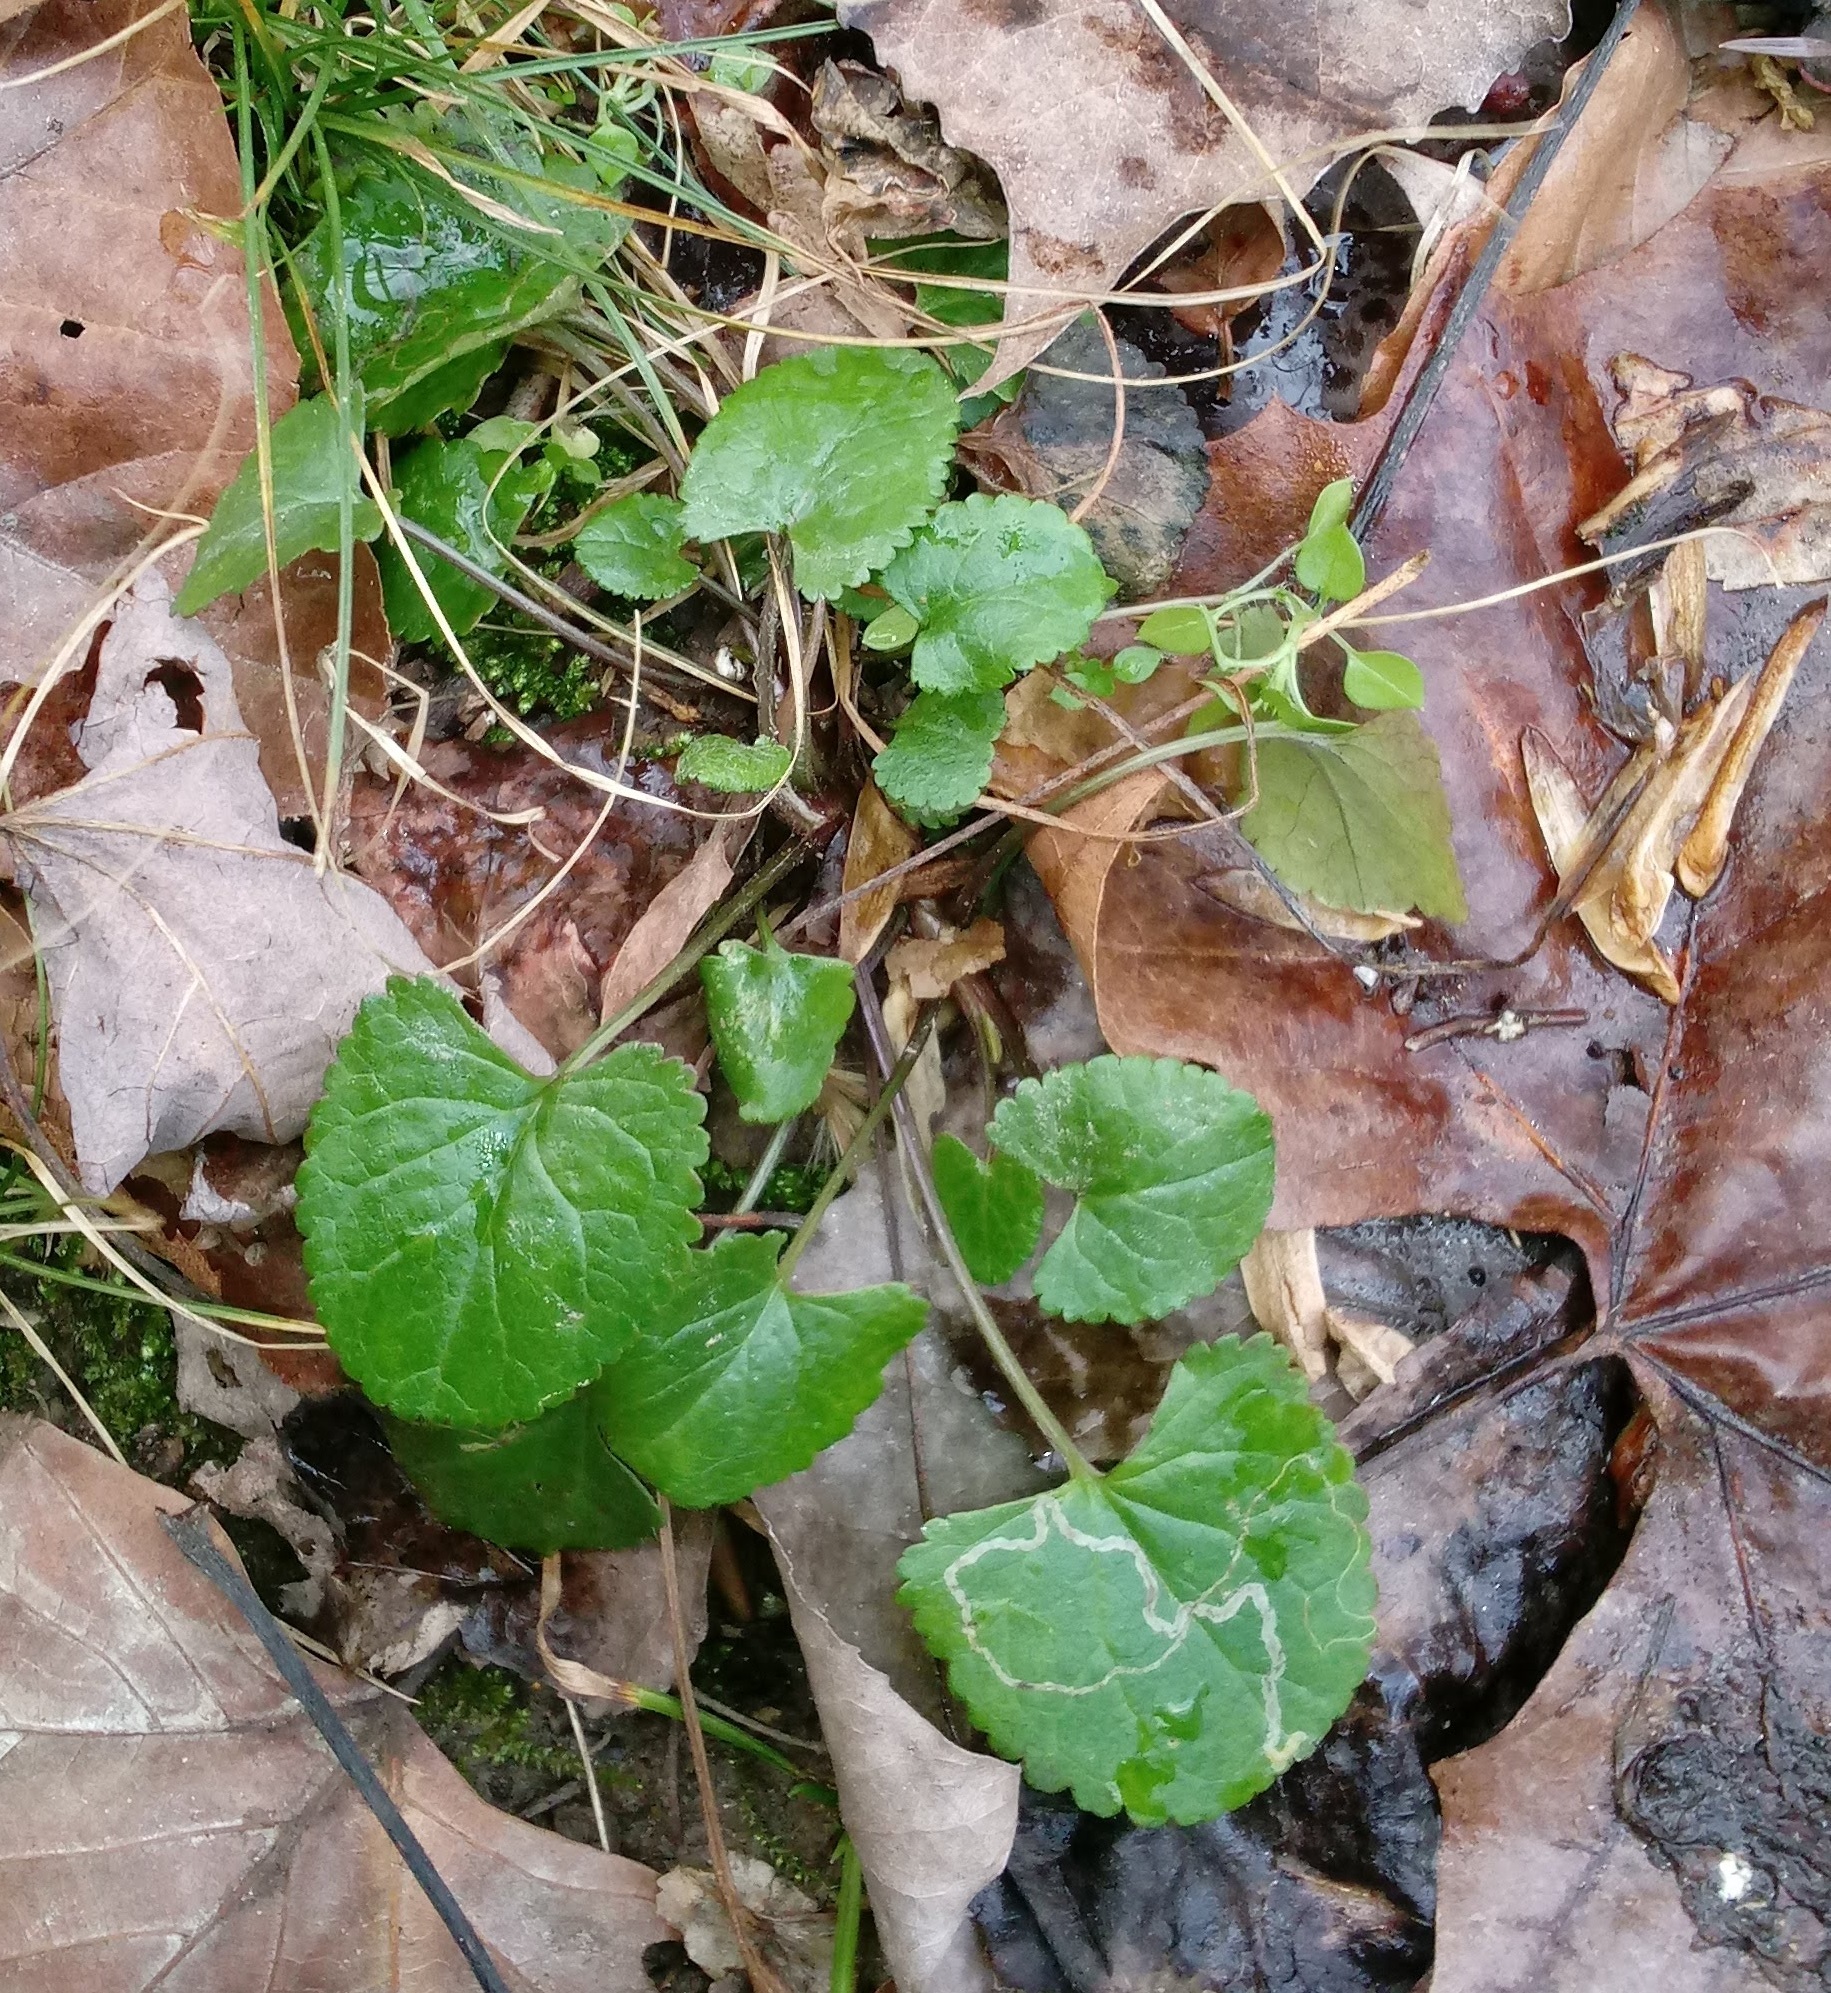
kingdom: Animalia
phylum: Arthropoda
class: Insecta
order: Lepidoptera
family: Gracillariidae
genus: Phyllocnistis
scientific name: Phyllocnistis insignis
